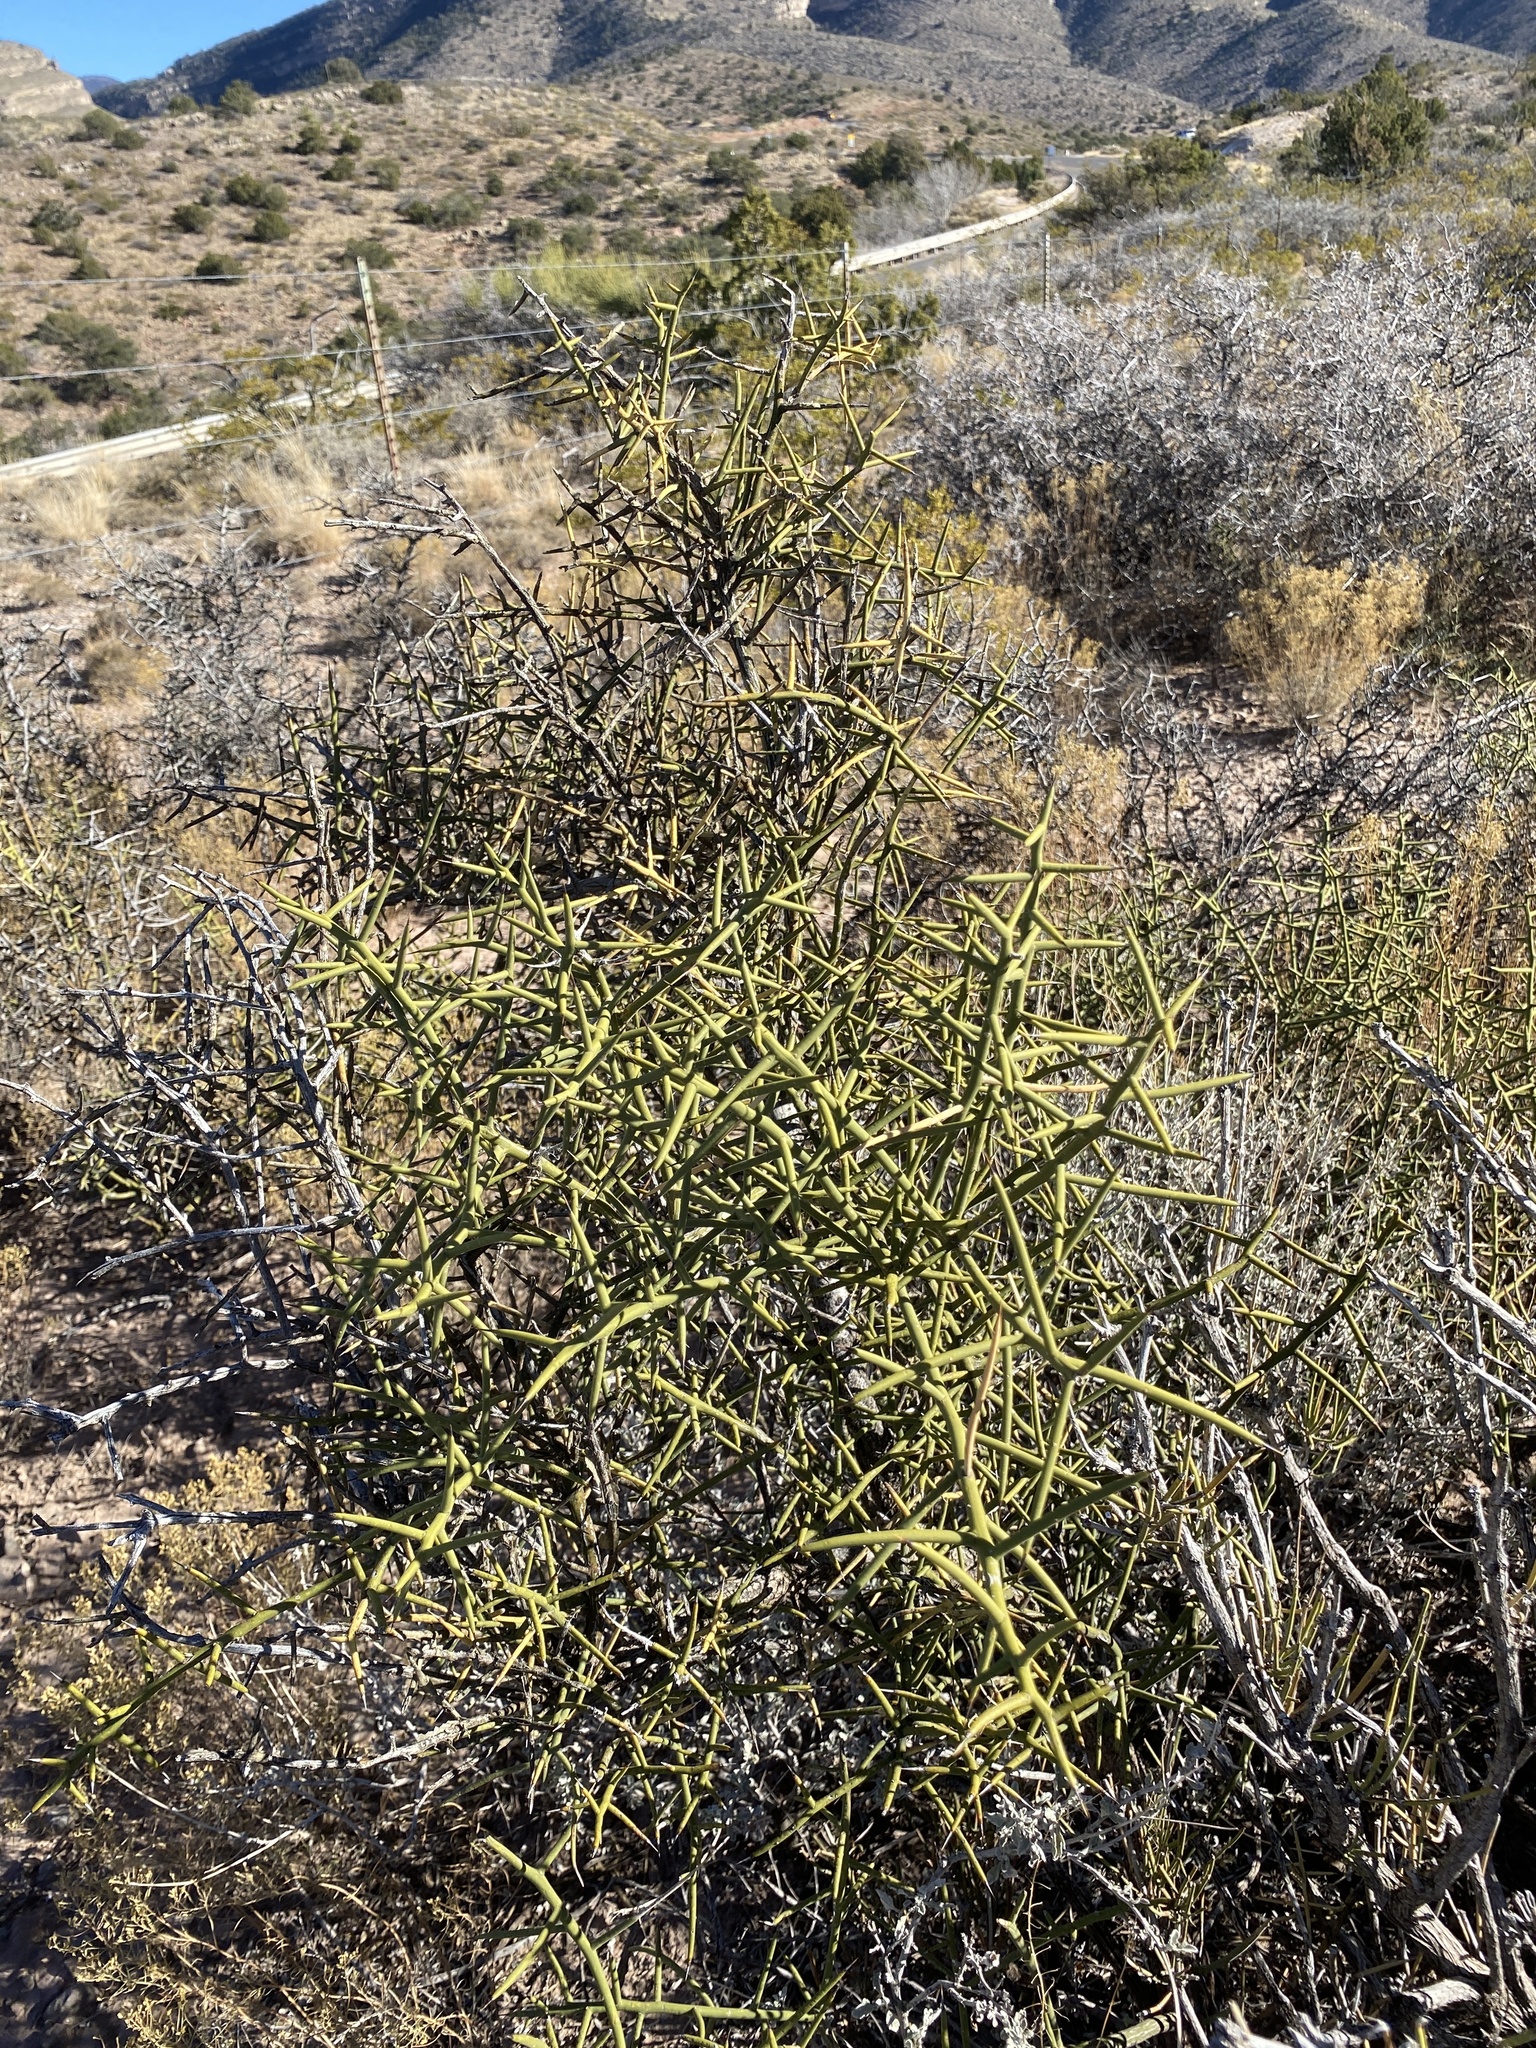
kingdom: Plantae
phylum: Tracheophyta
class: Magnoliopsida
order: Brassicales
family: Koeberliniaceae
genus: Koeberlinia
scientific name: Koeberlinia spinosa
